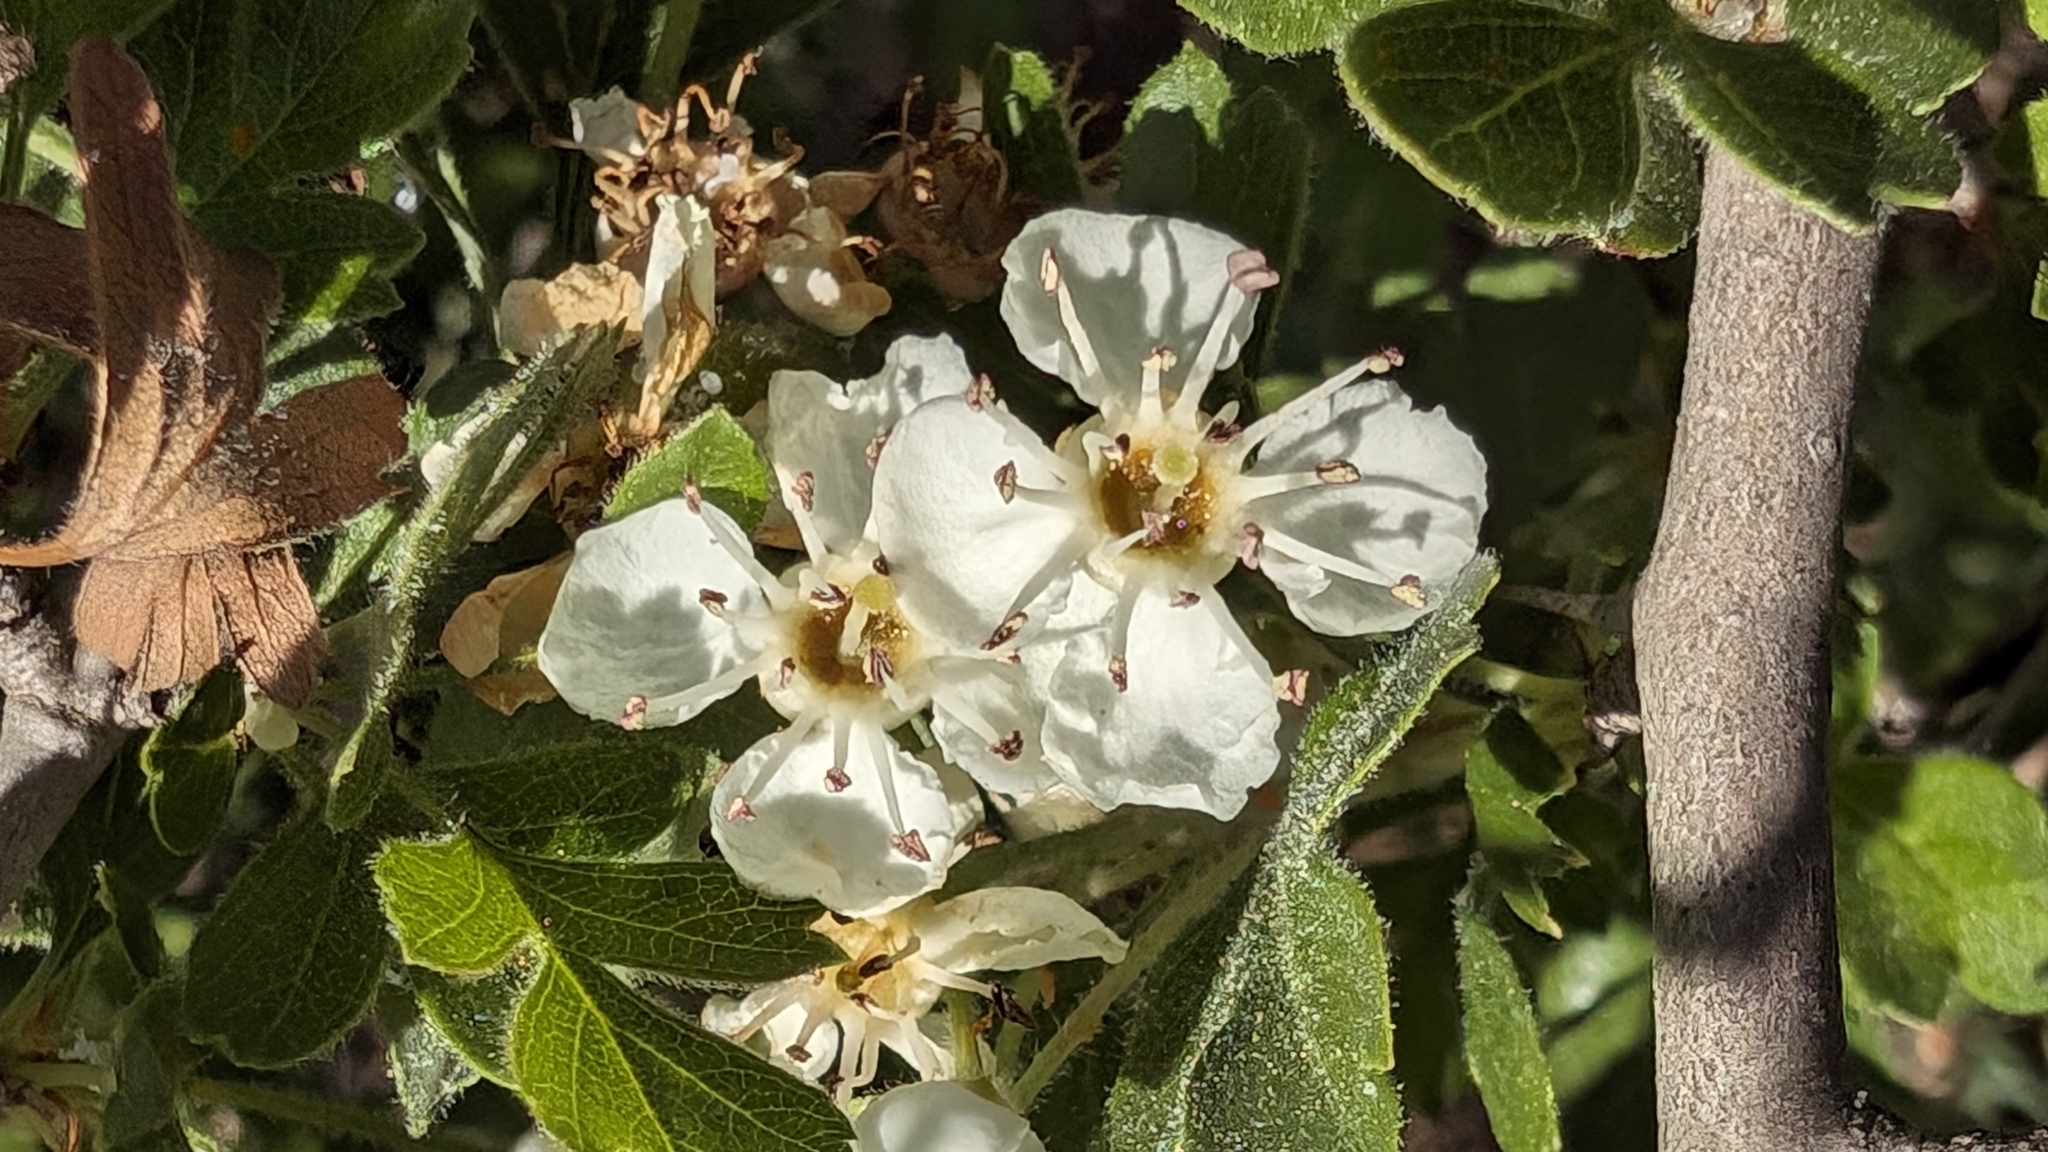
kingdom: Plantae
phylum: Tracheophyta
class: Magnoliopsida
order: Rosales
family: Rosaceae
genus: Crataegus
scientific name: Crataegus monogyna
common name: Hawthorn
